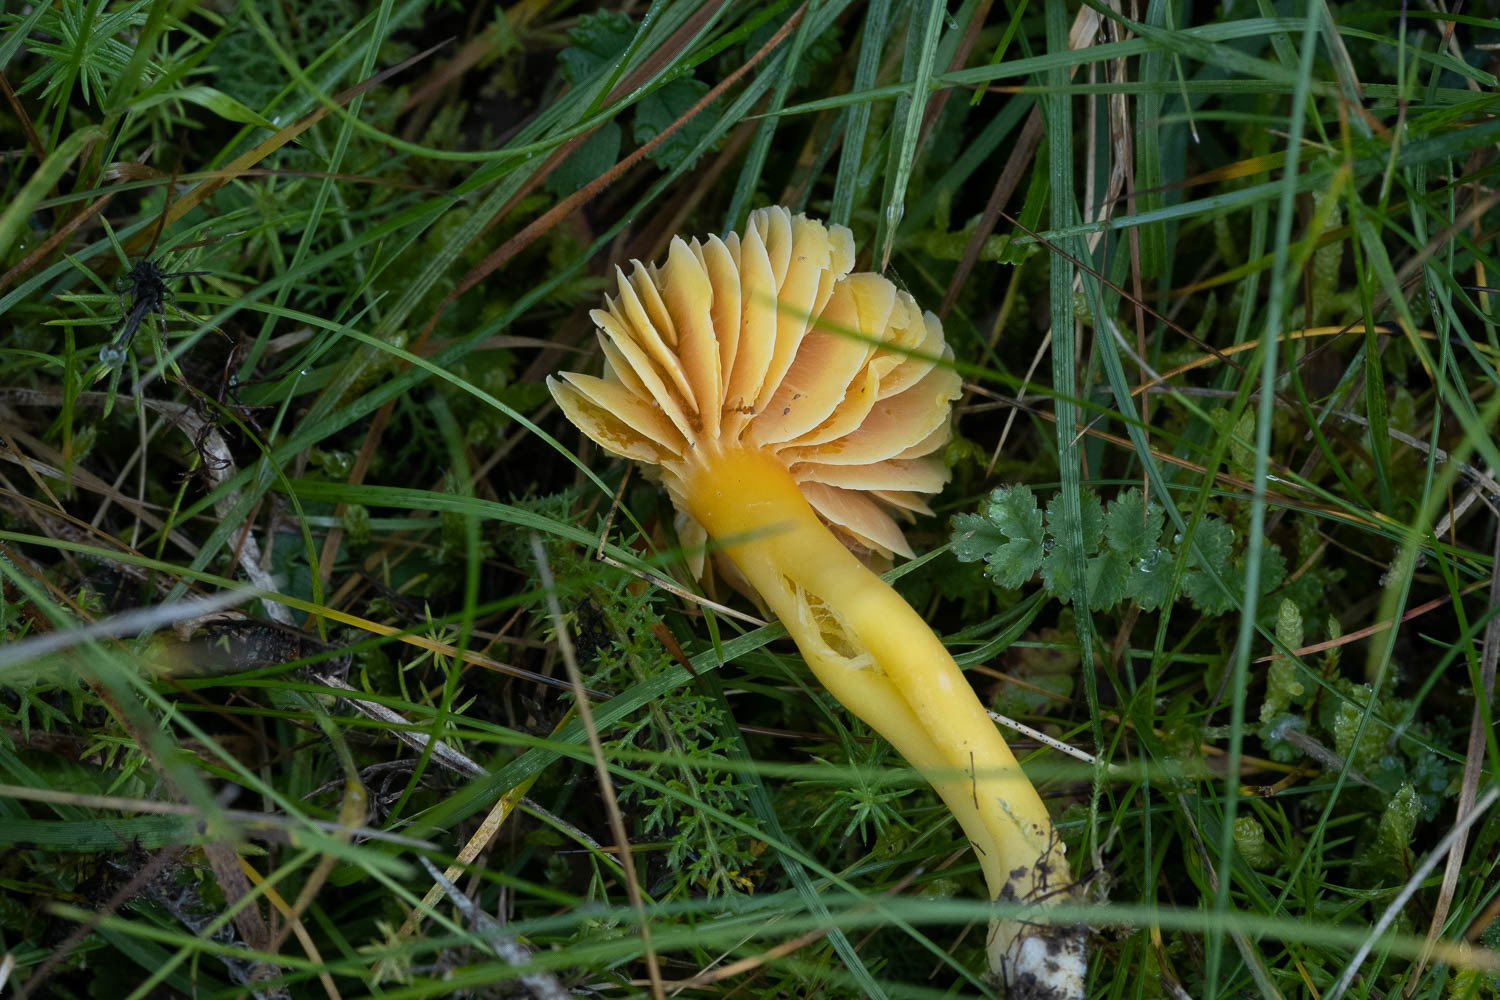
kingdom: Fungi
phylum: Basidiomycota
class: Agaricomycetes
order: Agaricales
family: Hygrophoraceae
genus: Hygrocybe
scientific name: Hygrocybe quieta
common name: Oily waxcap
